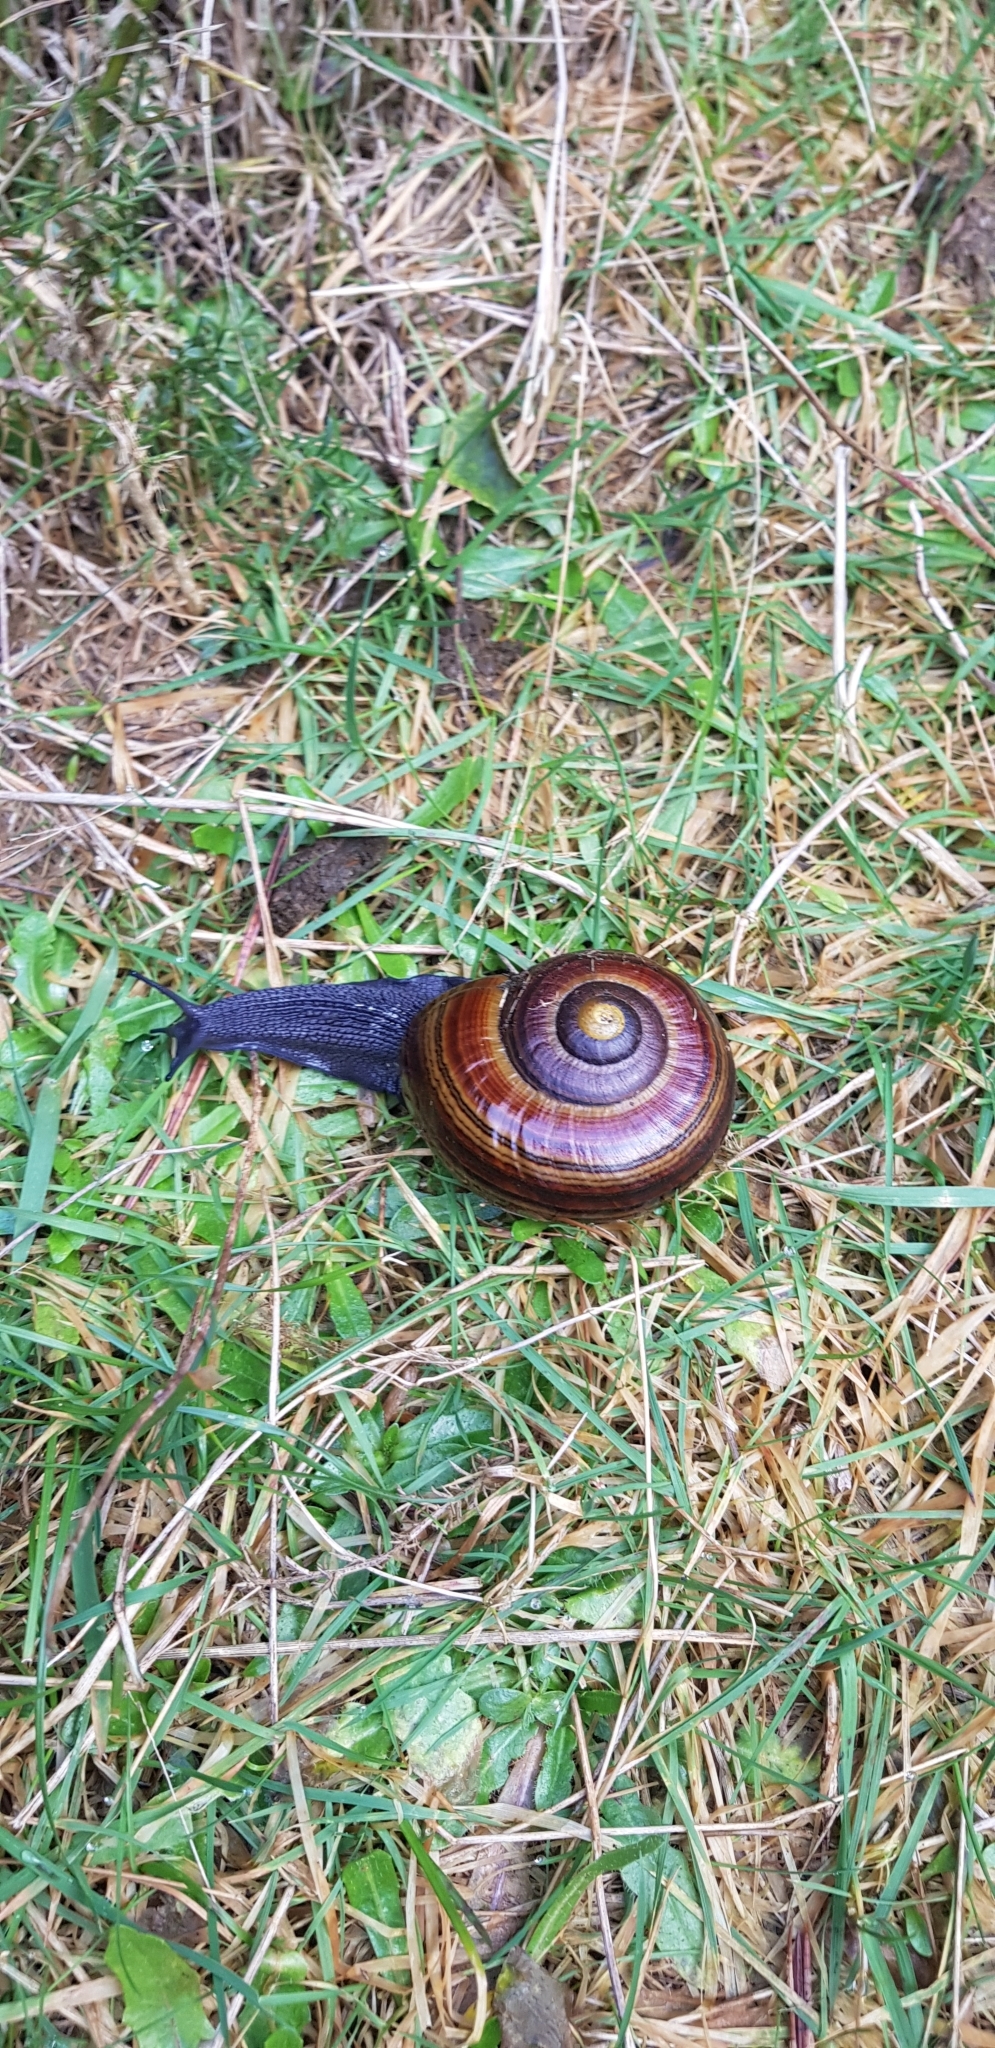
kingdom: Animalia
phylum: Mollusca
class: Gastropoda
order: Stylommatophora
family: Rhytididae
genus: Powelliphanta
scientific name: Powelliphanta hochstetteri
